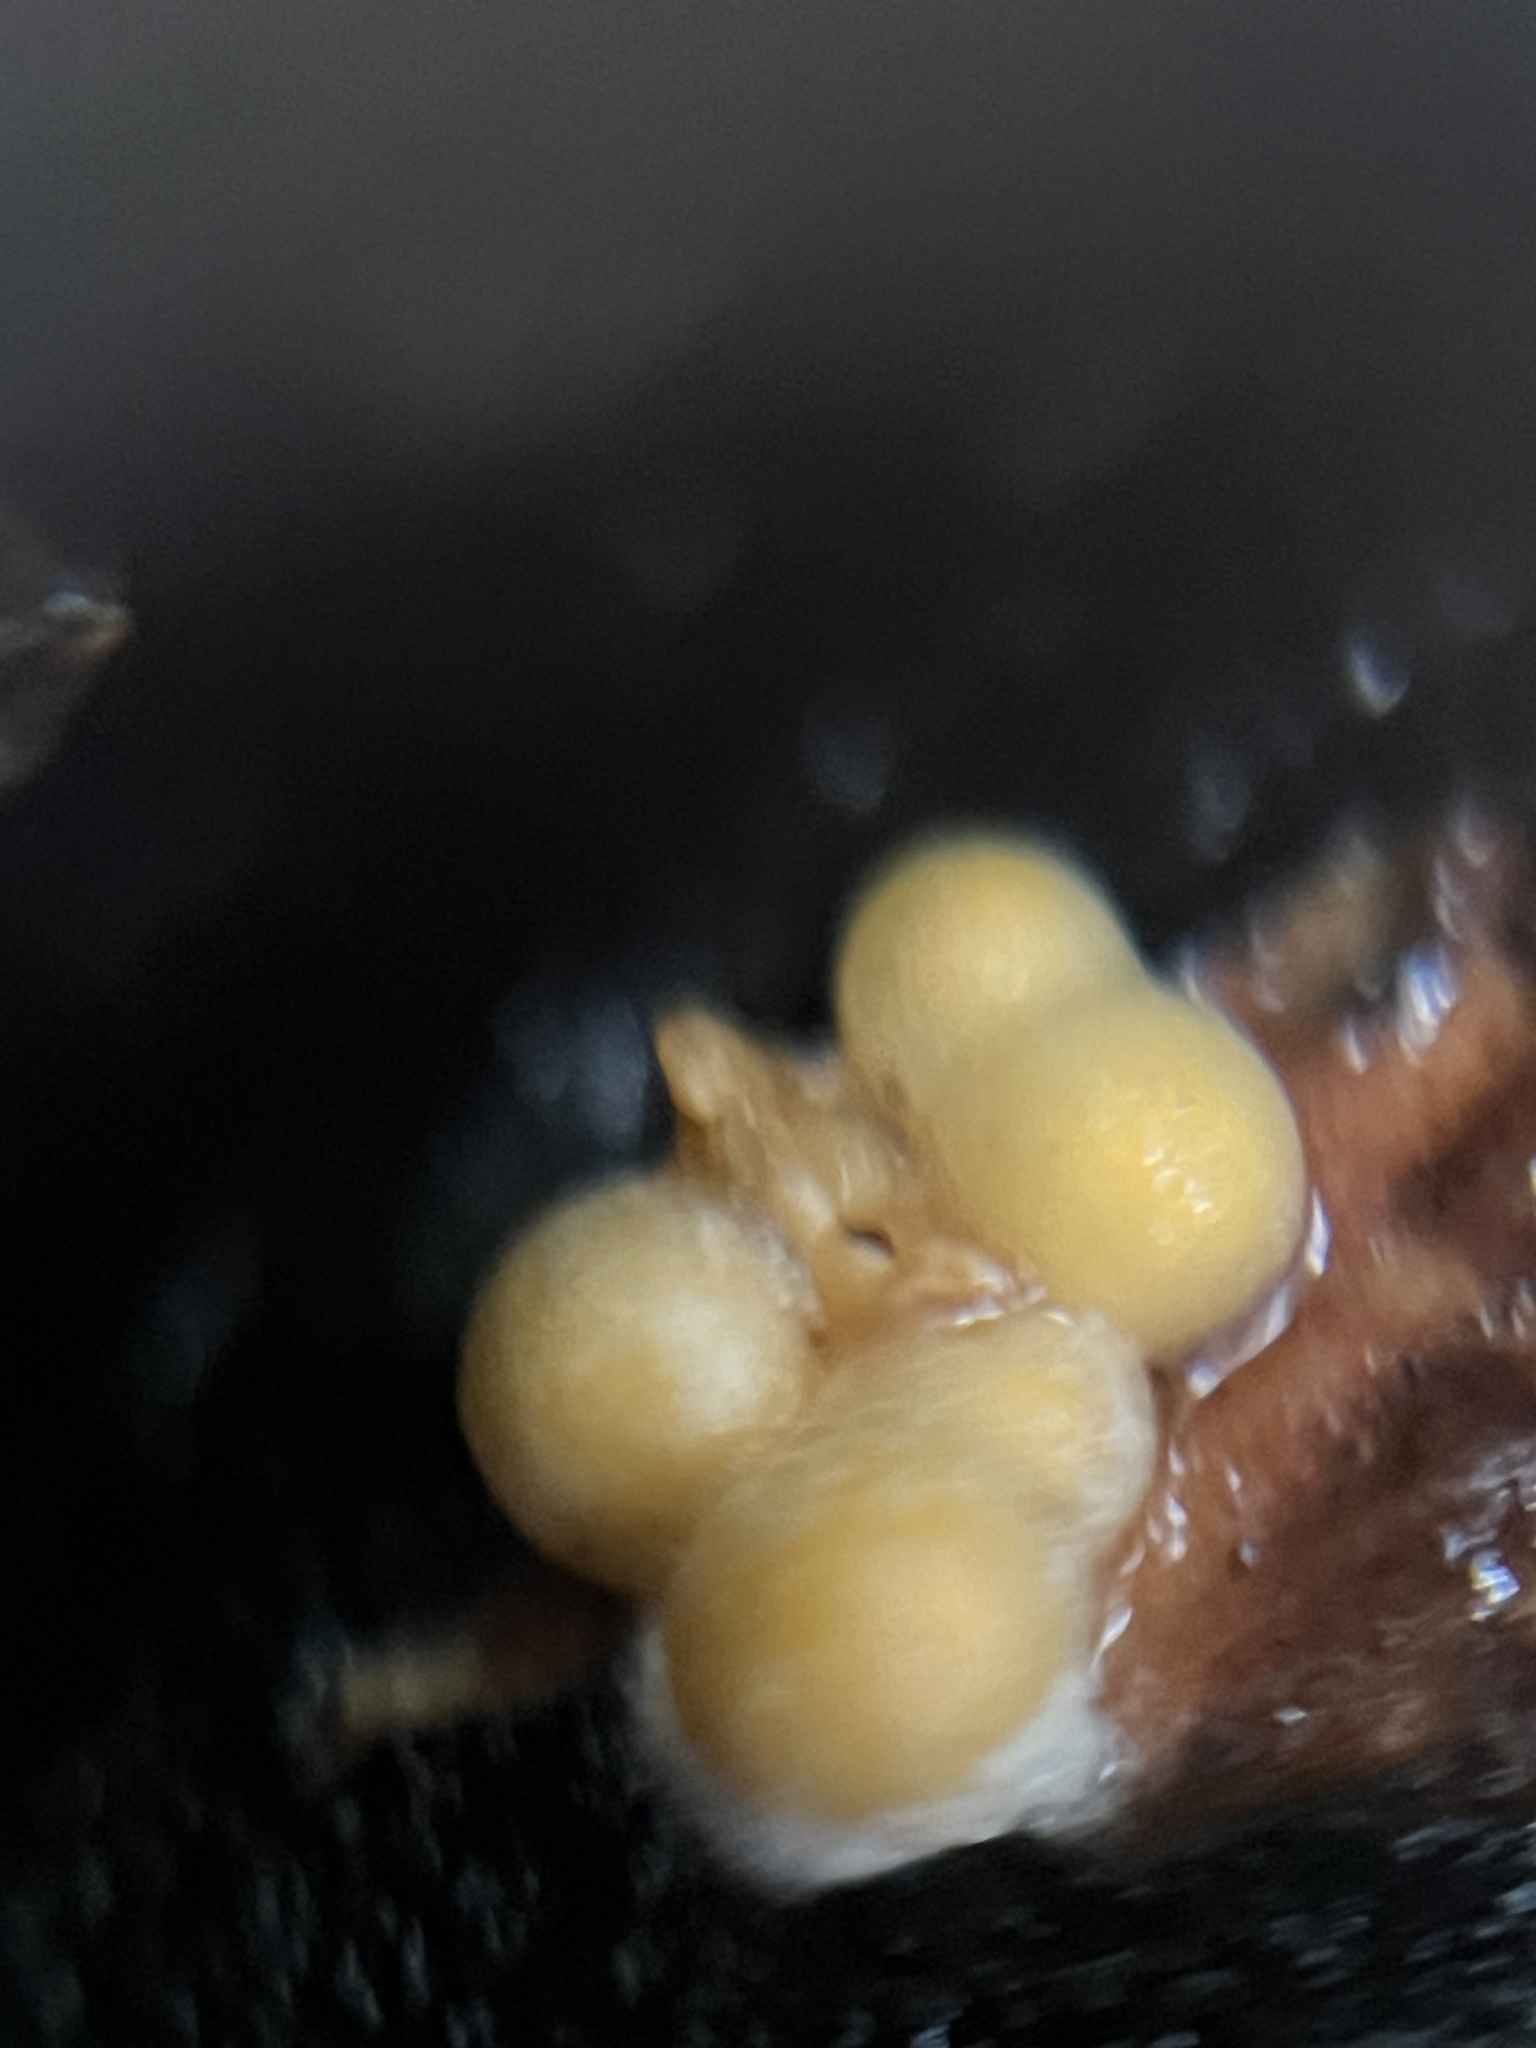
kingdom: Fungi
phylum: Basidiomycota
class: Agaricomycetes
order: Geastrales
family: Geastraceae
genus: Sphaerobolus
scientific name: Sphaerobolus stellatus
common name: Cannon fungus
